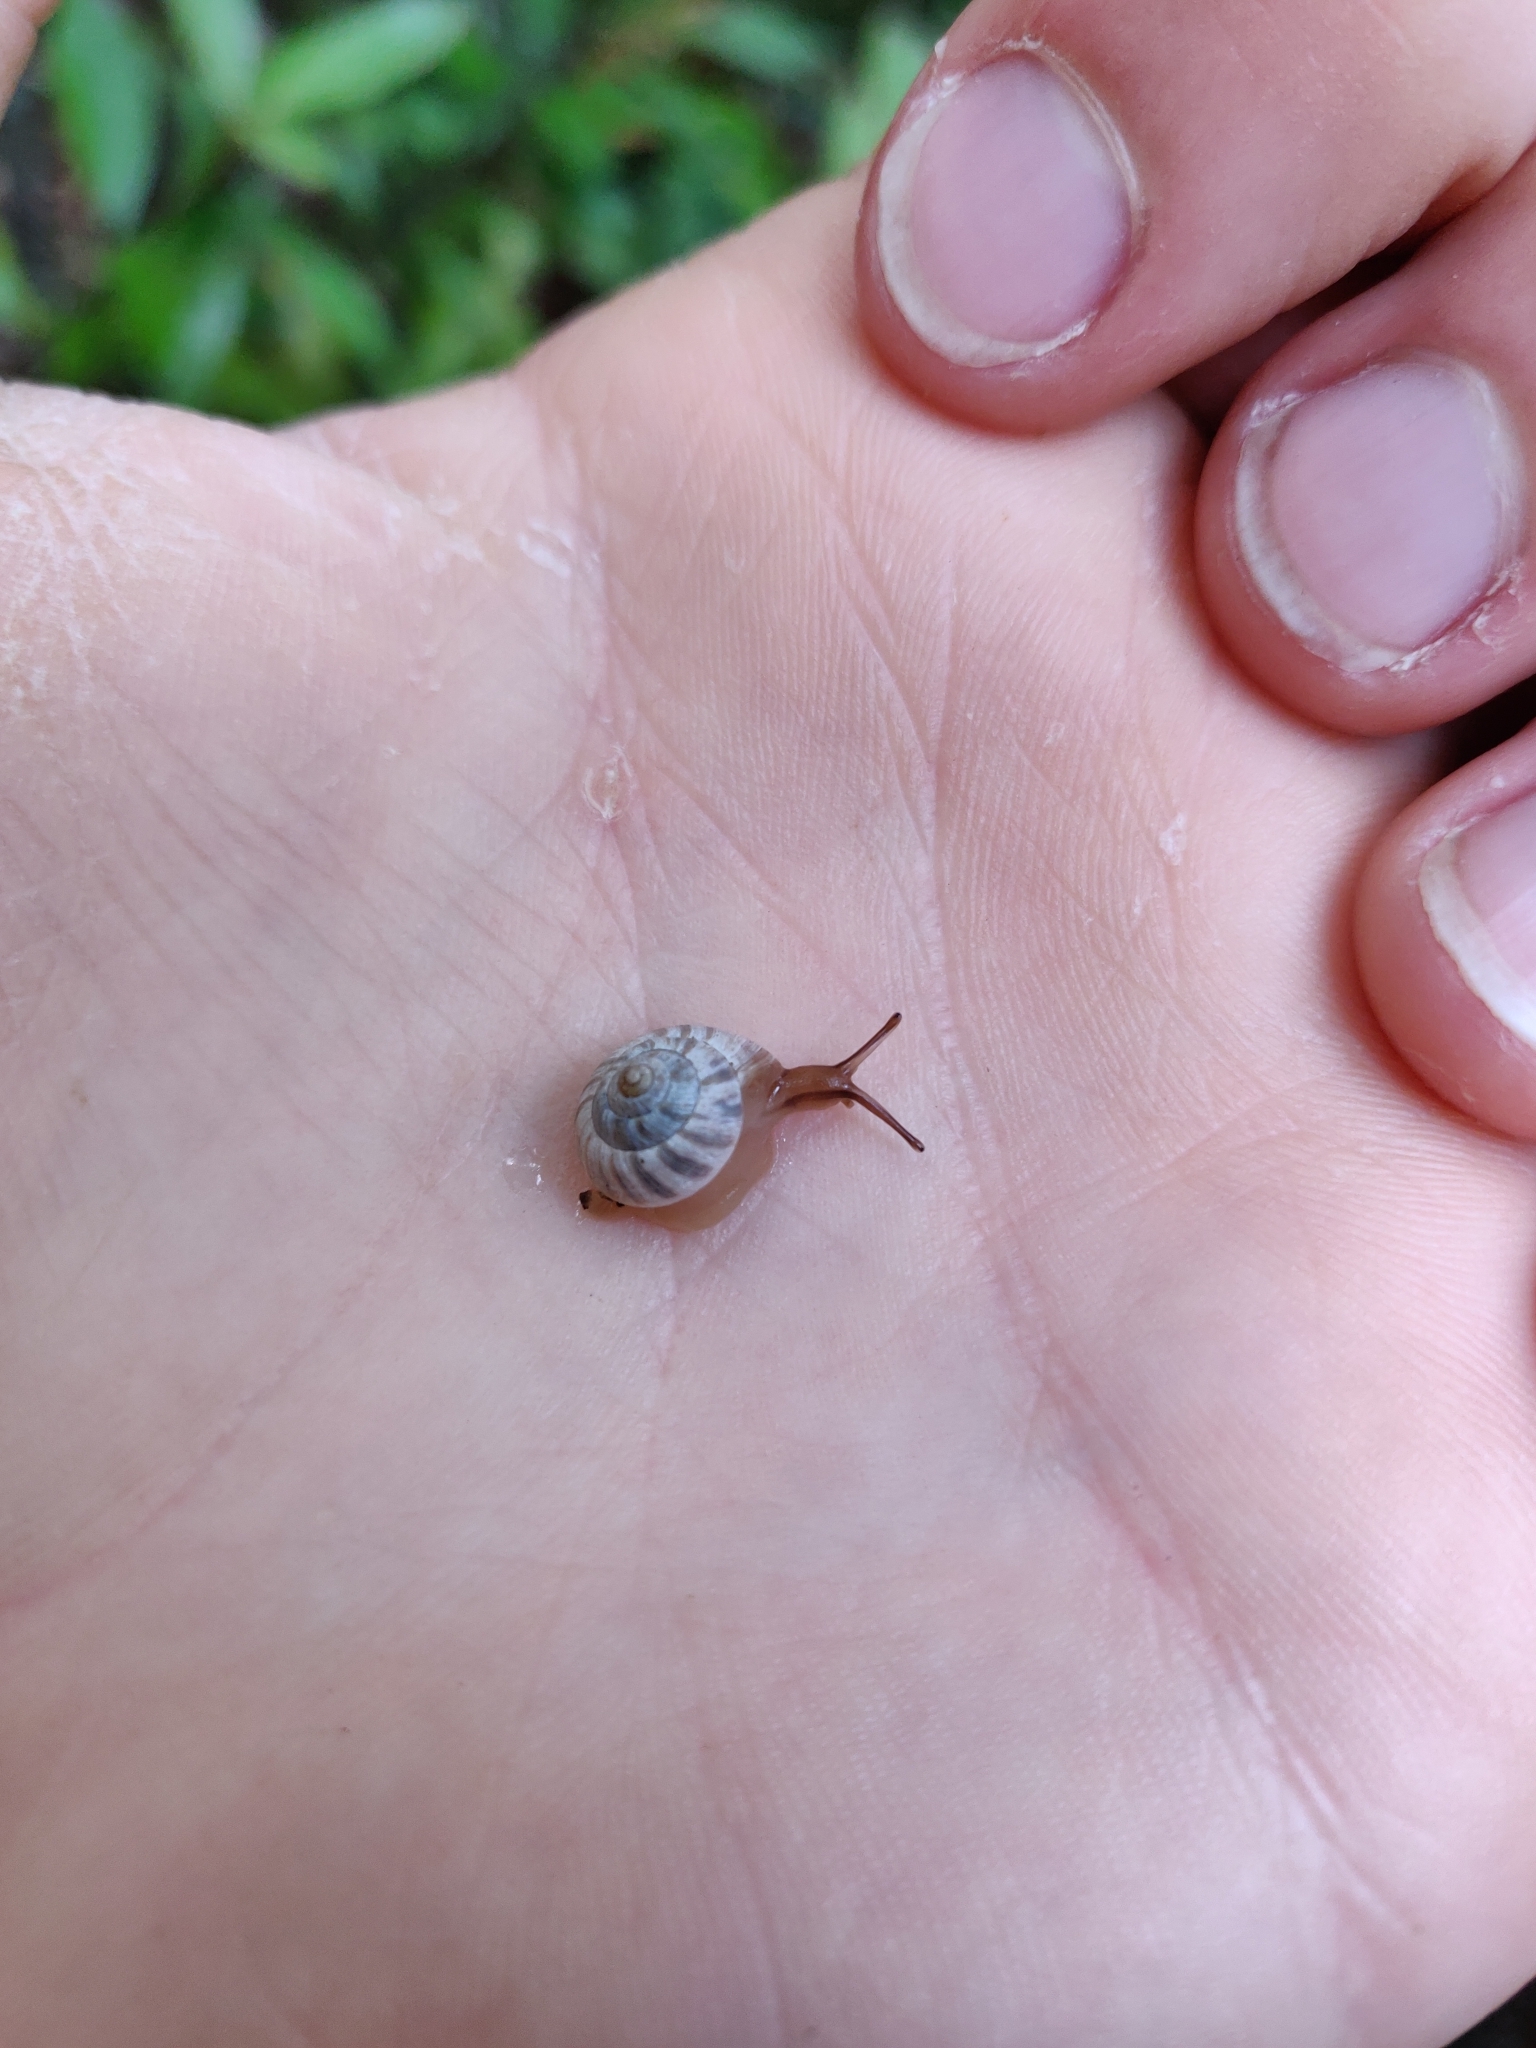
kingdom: Animalia
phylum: Mollusca
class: Gastropoda
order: Stylommatophora
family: Charopidae
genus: Serpho
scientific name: Serpho
